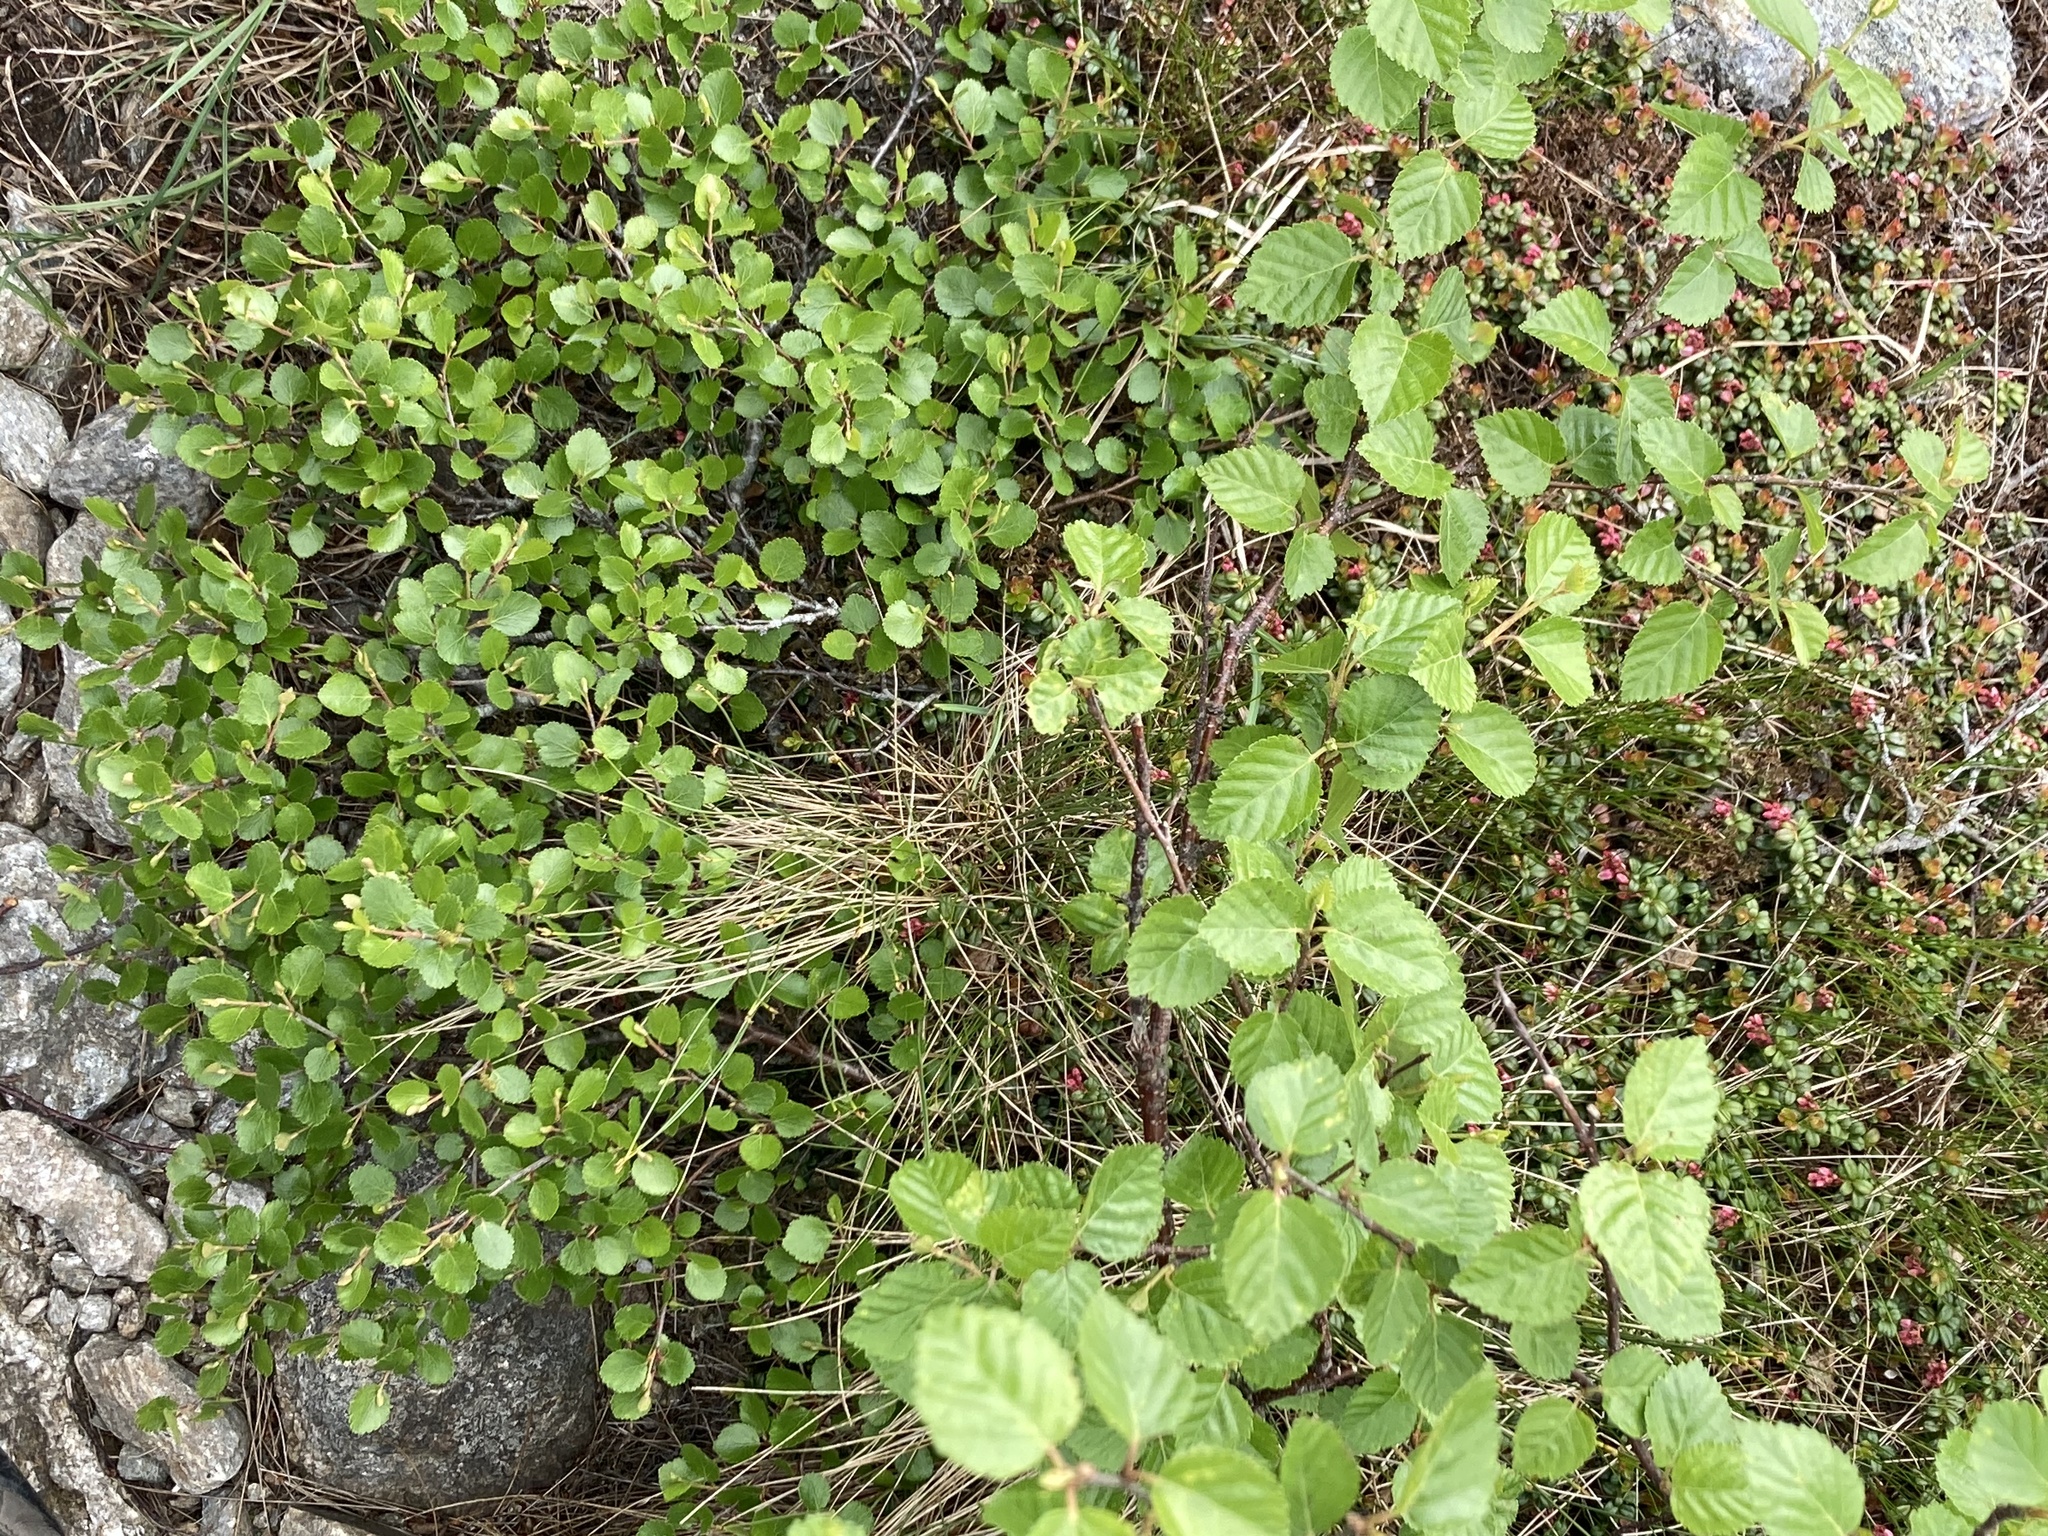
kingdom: Plantae
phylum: Tracheophyta
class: Magnoliopsida
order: Fagales
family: Betulaceae
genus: Betula
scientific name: Betula glandulosa
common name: Dwarf birch
